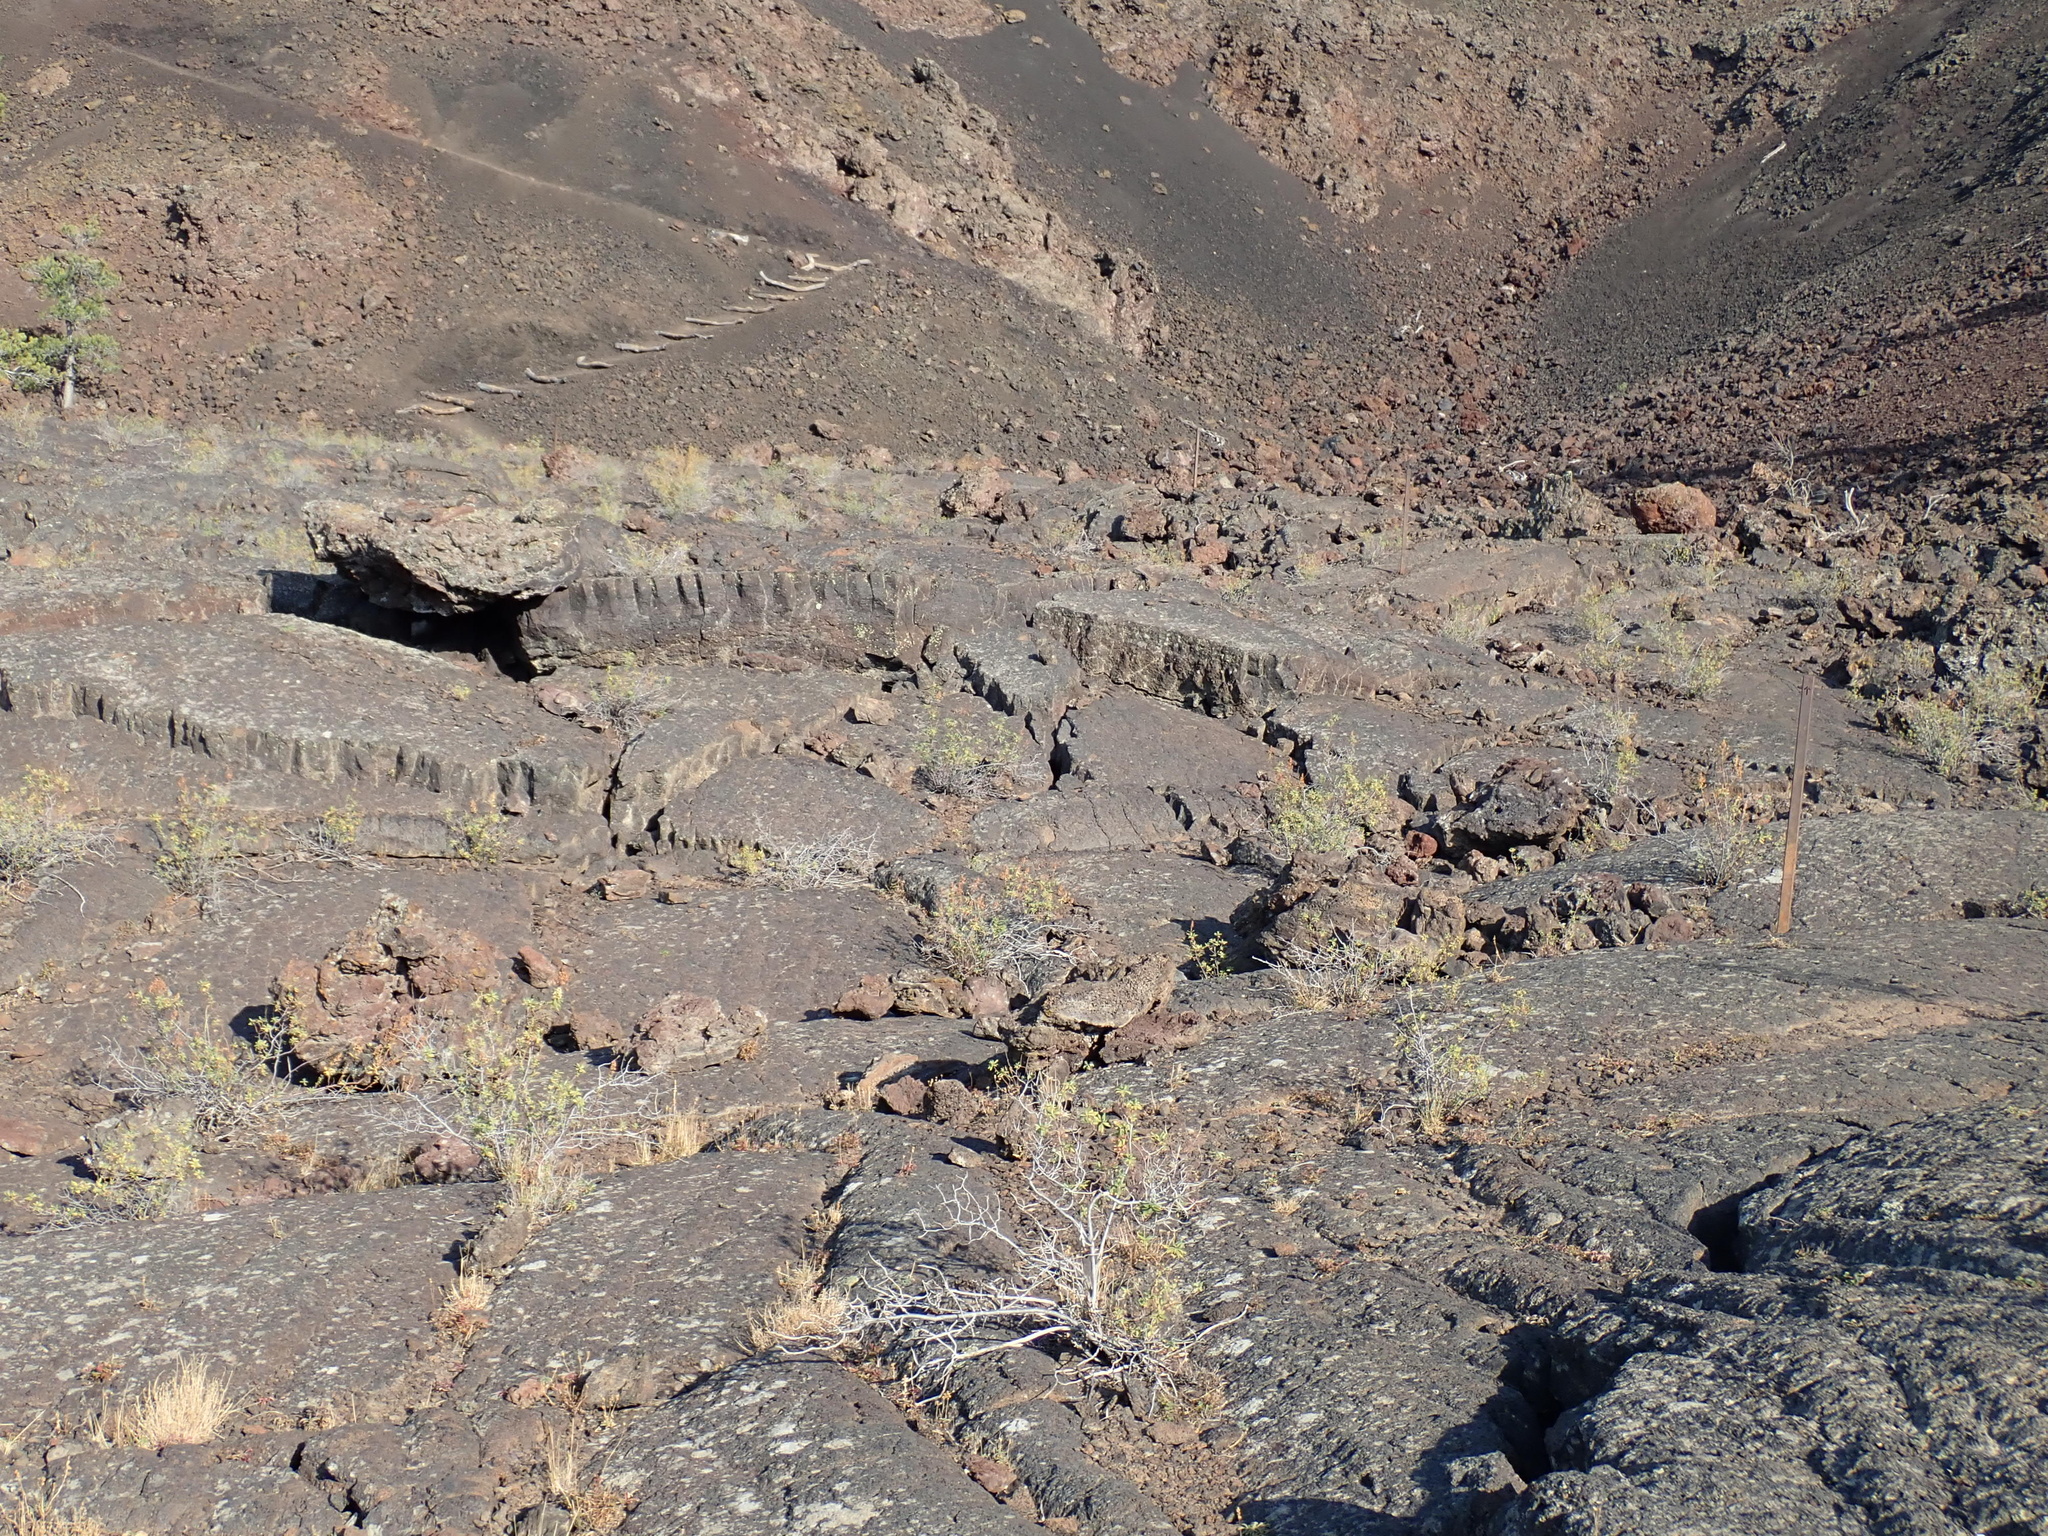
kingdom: Plantae
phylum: Tracheophyta
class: Magnoliopsida
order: Rosales
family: Rosaceae
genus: Chamaebatiaria
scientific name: Chamaebatiaria millefolium
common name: Fernbush
